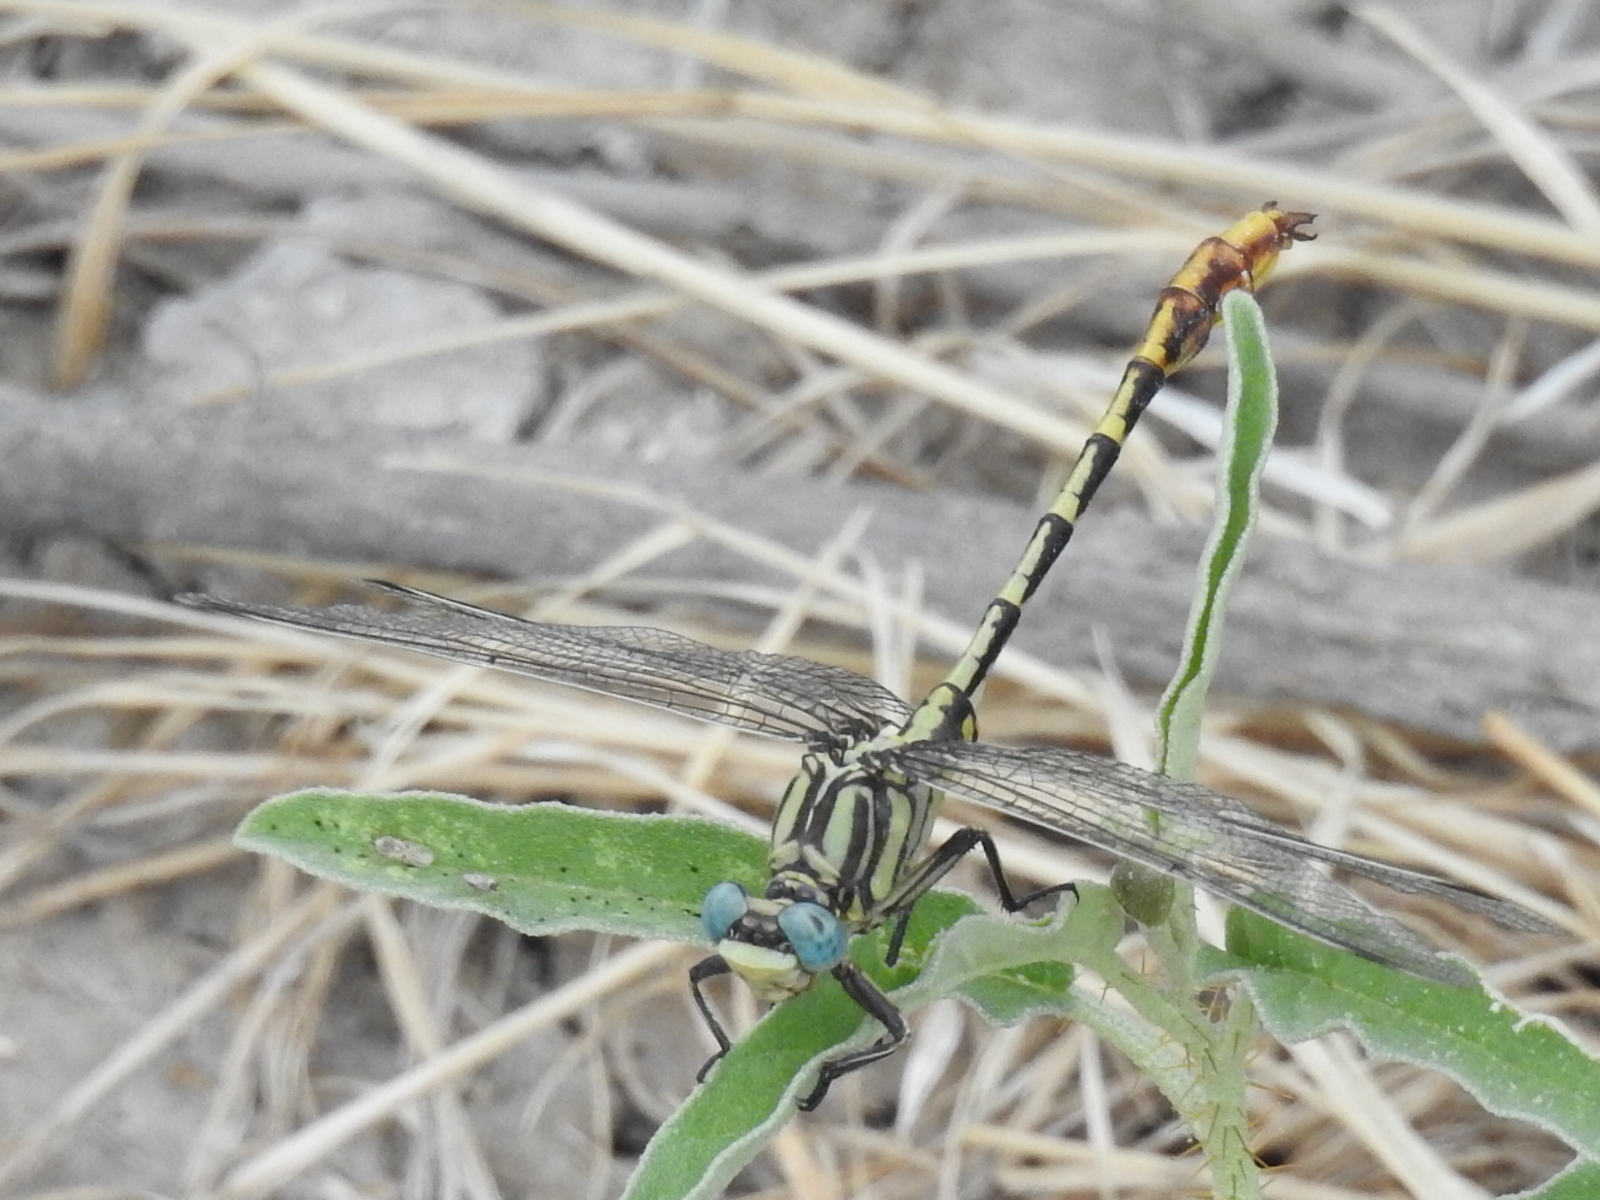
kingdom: Animalia
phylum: Arthropoda
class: Insecta
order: Odonata
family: Gomphidae
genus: Phanogomphus
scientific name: Phanogomphus militaris
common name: Sulphur-tipped clubtail
